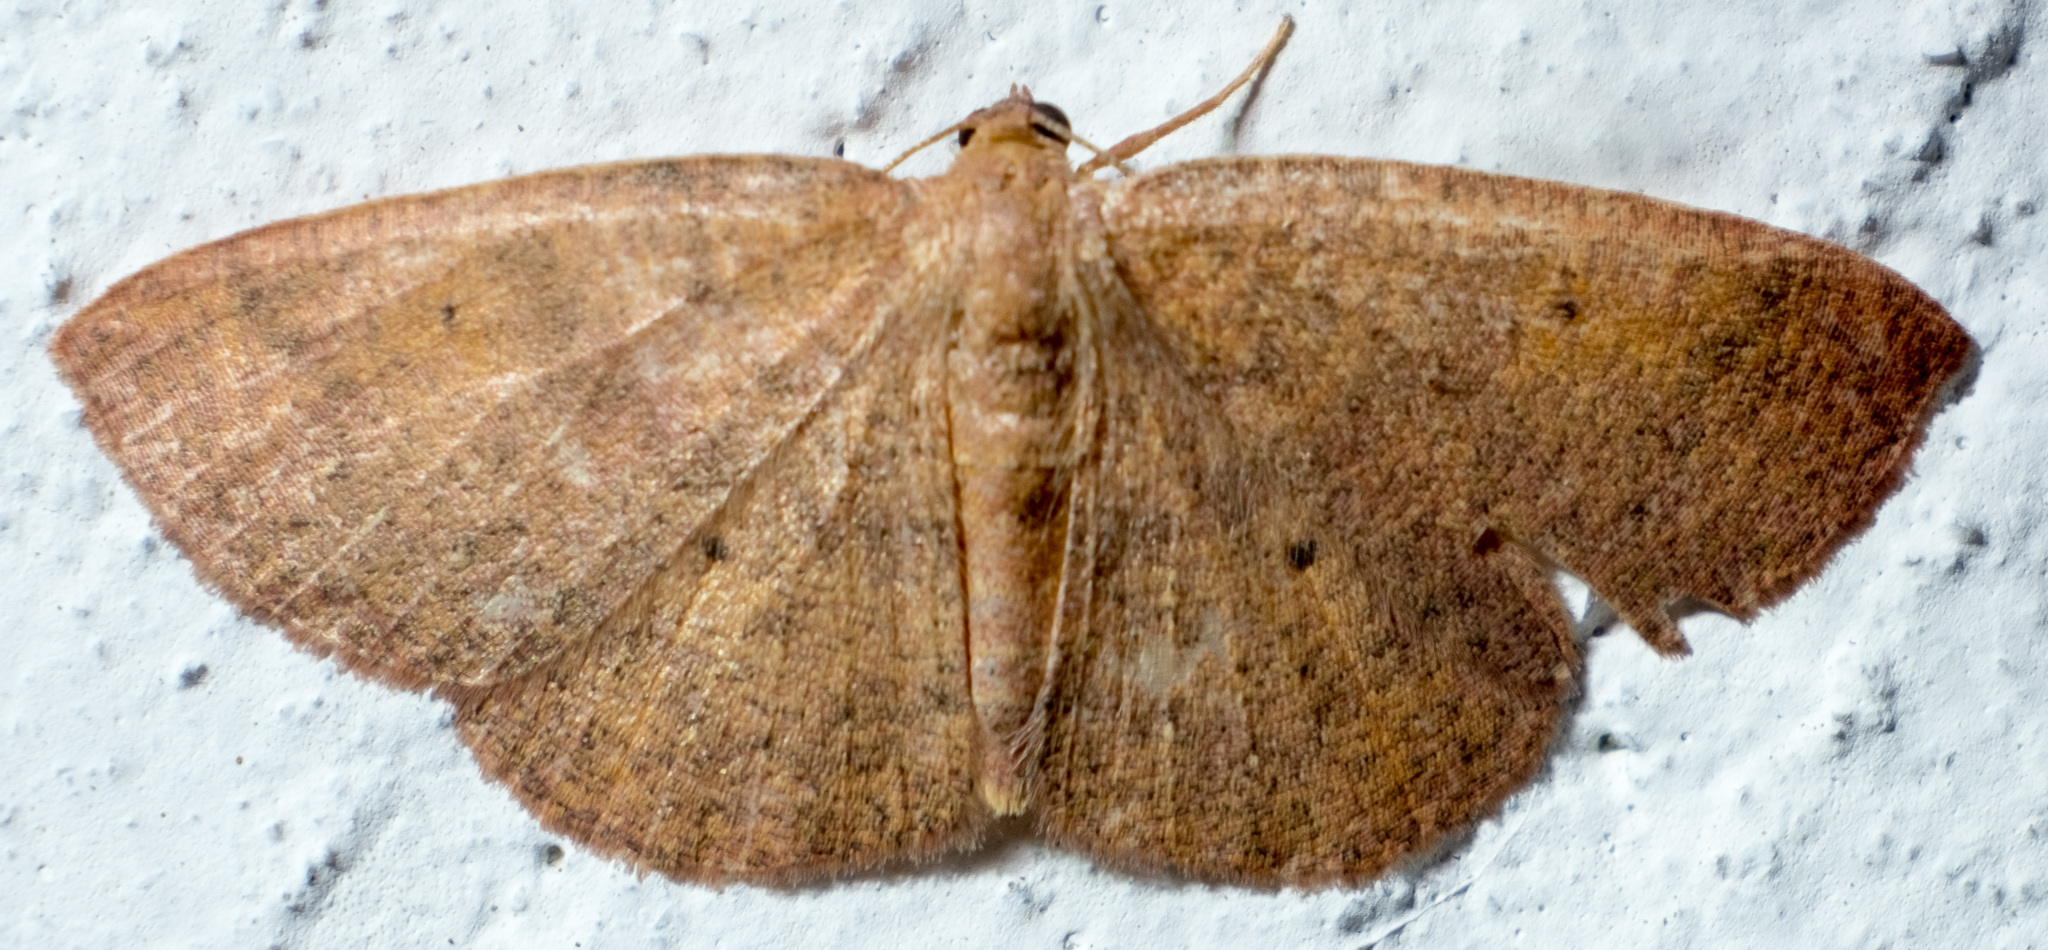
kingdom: Animalia
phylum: Arthropoda
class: Insecta
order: Lepidoptera
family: Geometridae
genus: Ilexia
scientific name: Ilexia intractata
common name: Black-dotted ruddy moth
